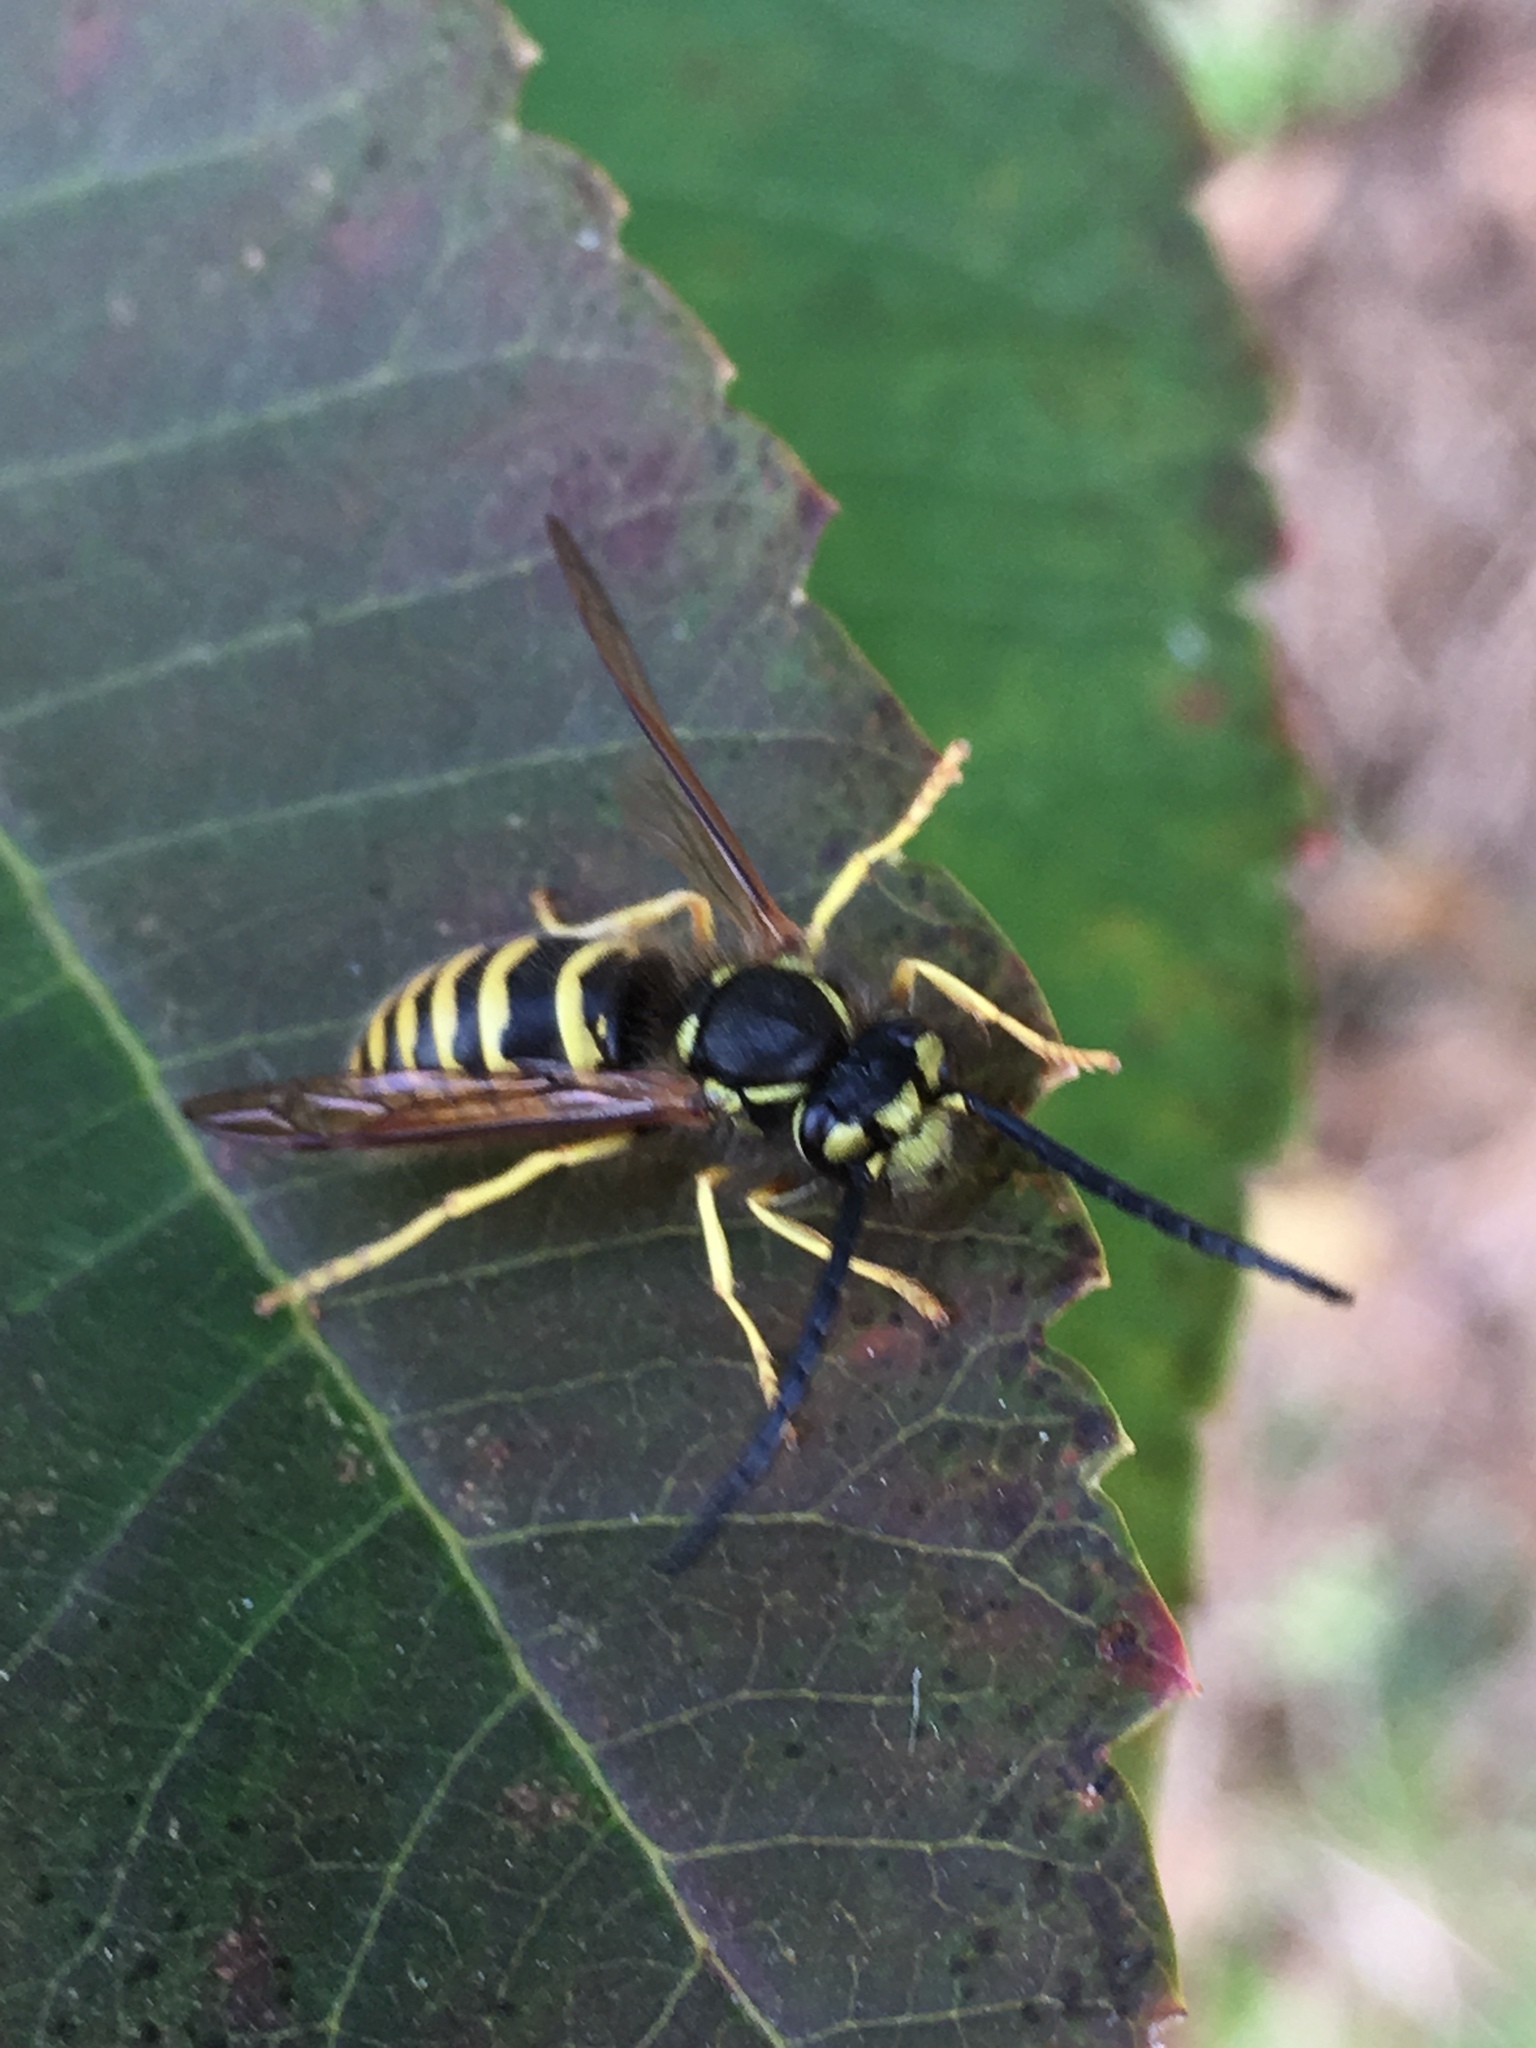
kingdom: Animalia
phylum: Arthropoda
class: Insecta
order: Hymenoptera
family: Vespidae
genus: Vespula
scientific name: Vespula maculifrons
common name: Eastern yellowjacket
